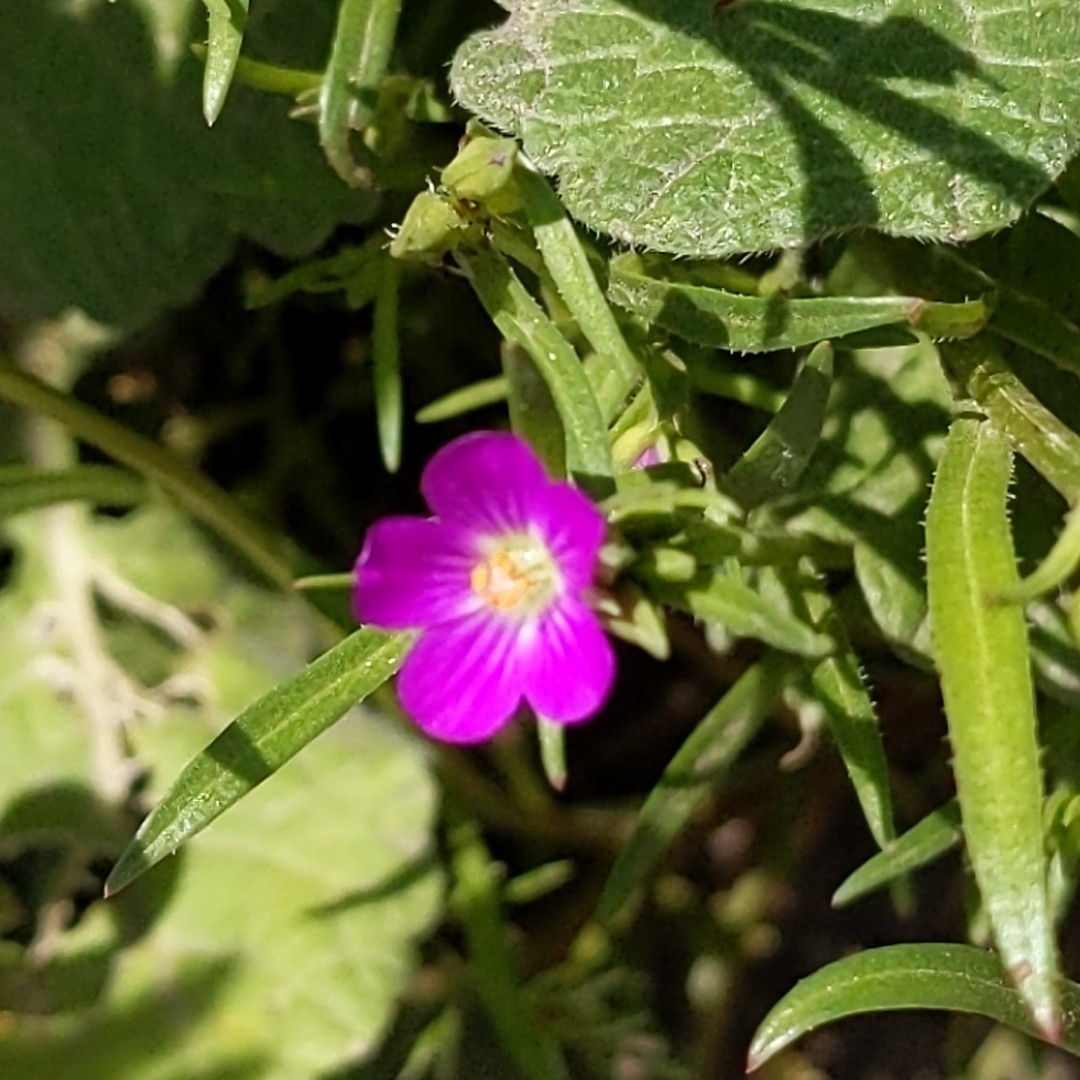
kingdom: Plantae
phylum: Tracheophyta
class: Magnoliopsida
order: Caryophyllales
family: Montiaceae
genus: Calandrinia
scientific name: Calandrinia menziesii
